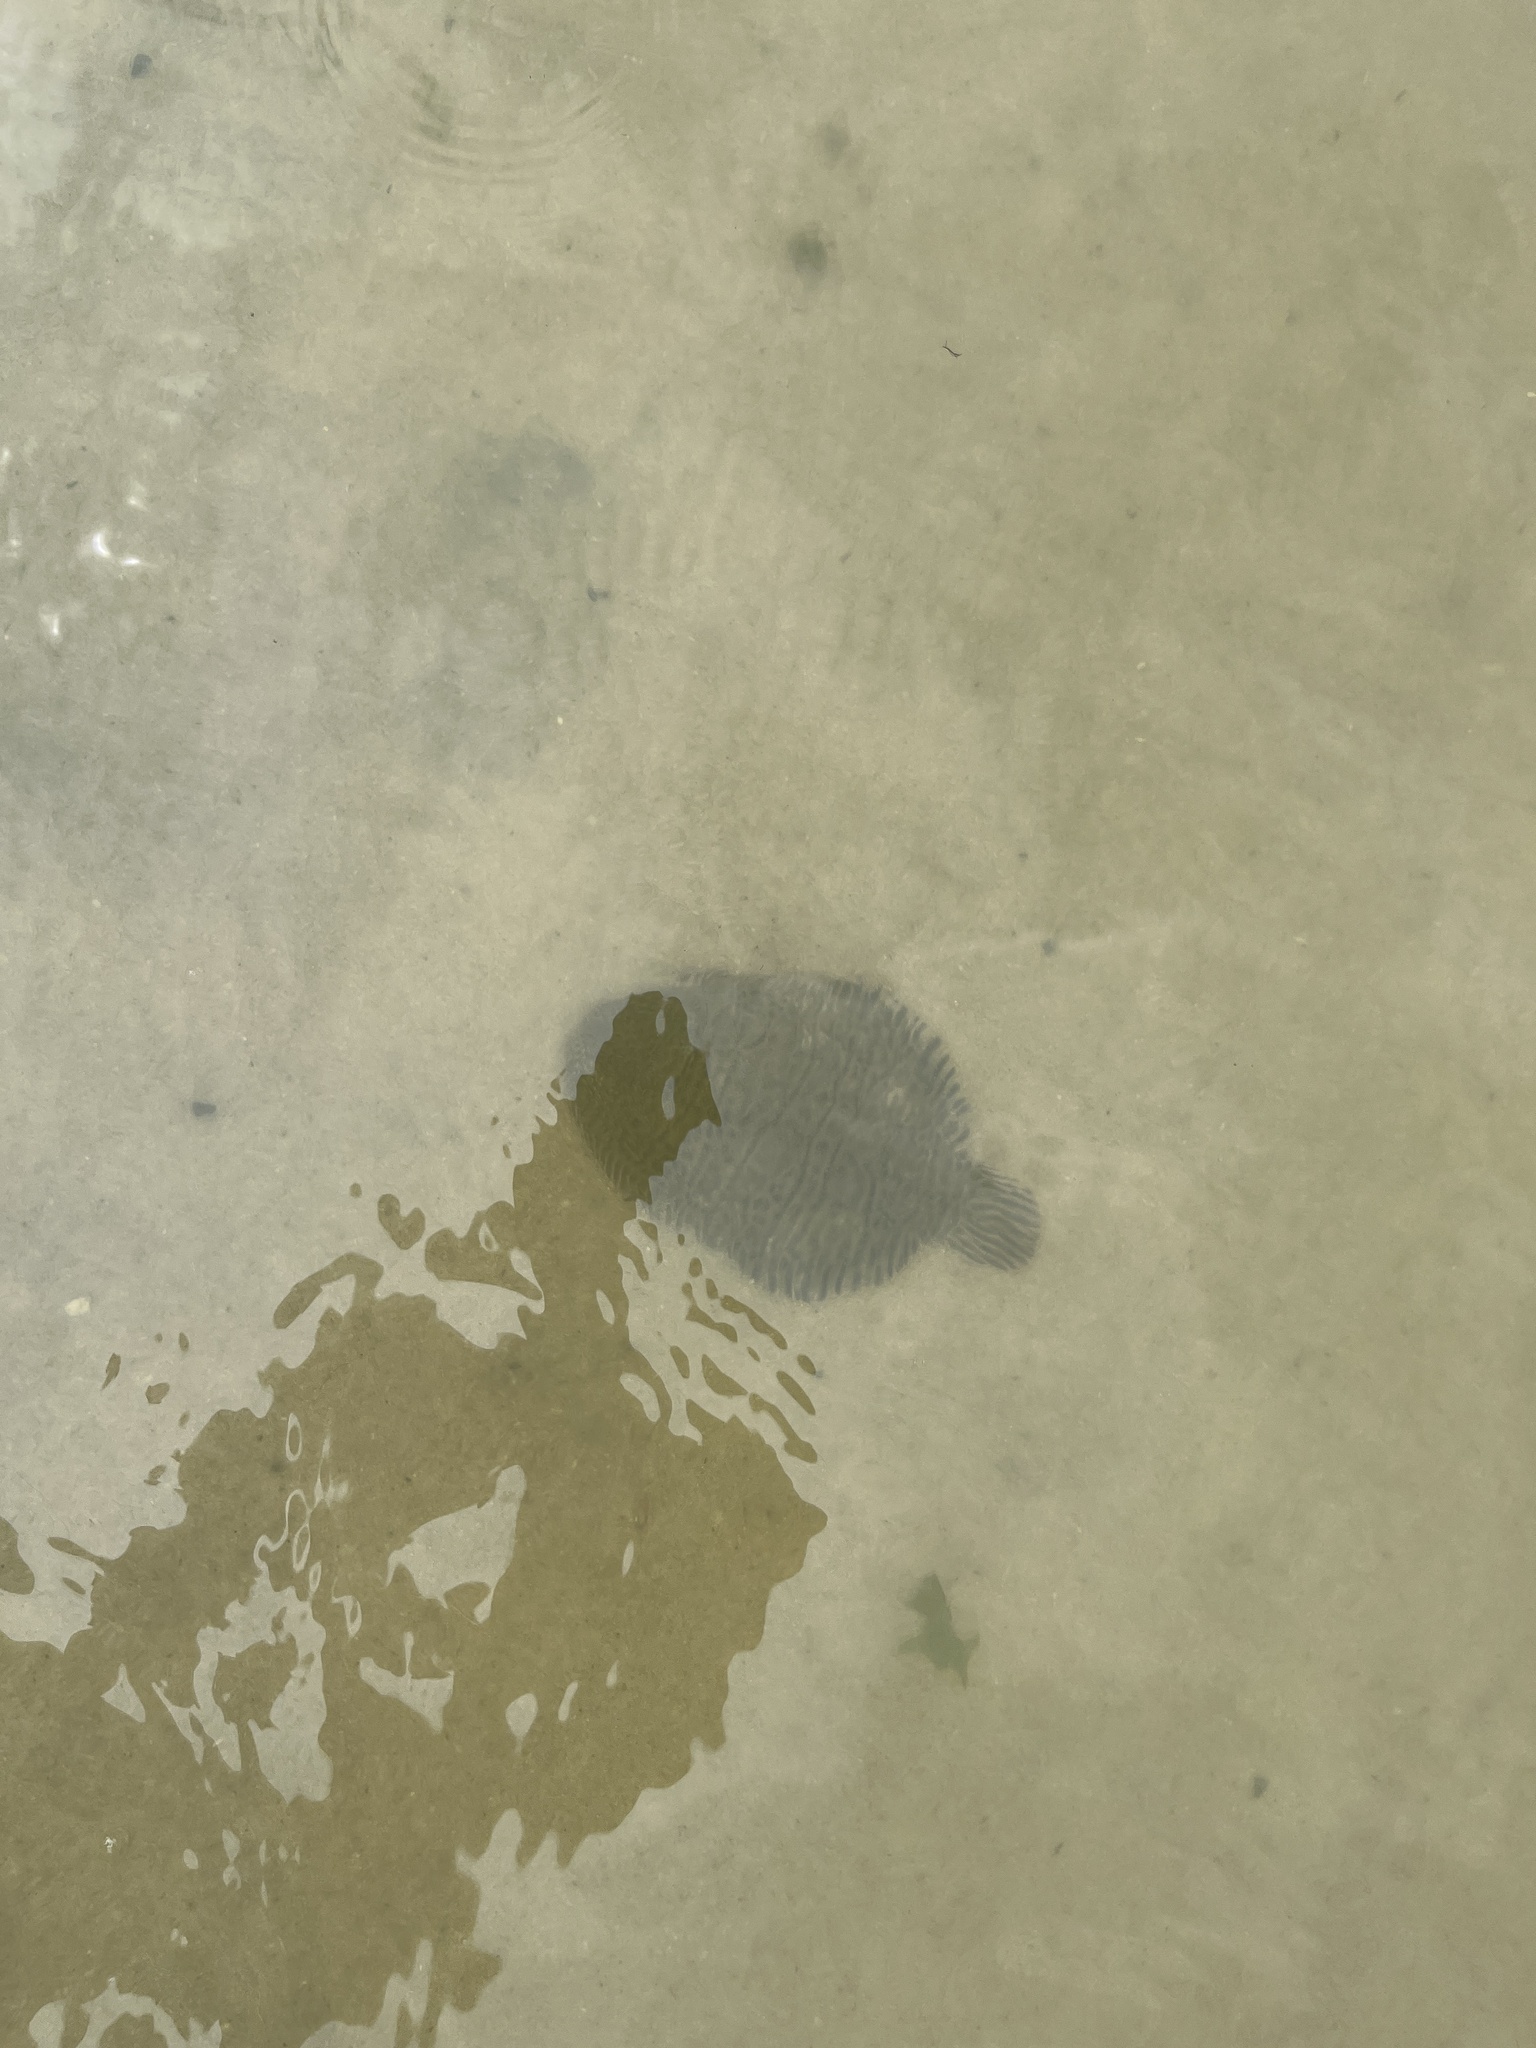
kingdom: Animalia
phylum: Chordata
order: Pleuronectiformes
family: Achiridae
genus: Trinectes
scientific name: Trinectes maculatus
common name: Hogchoker
